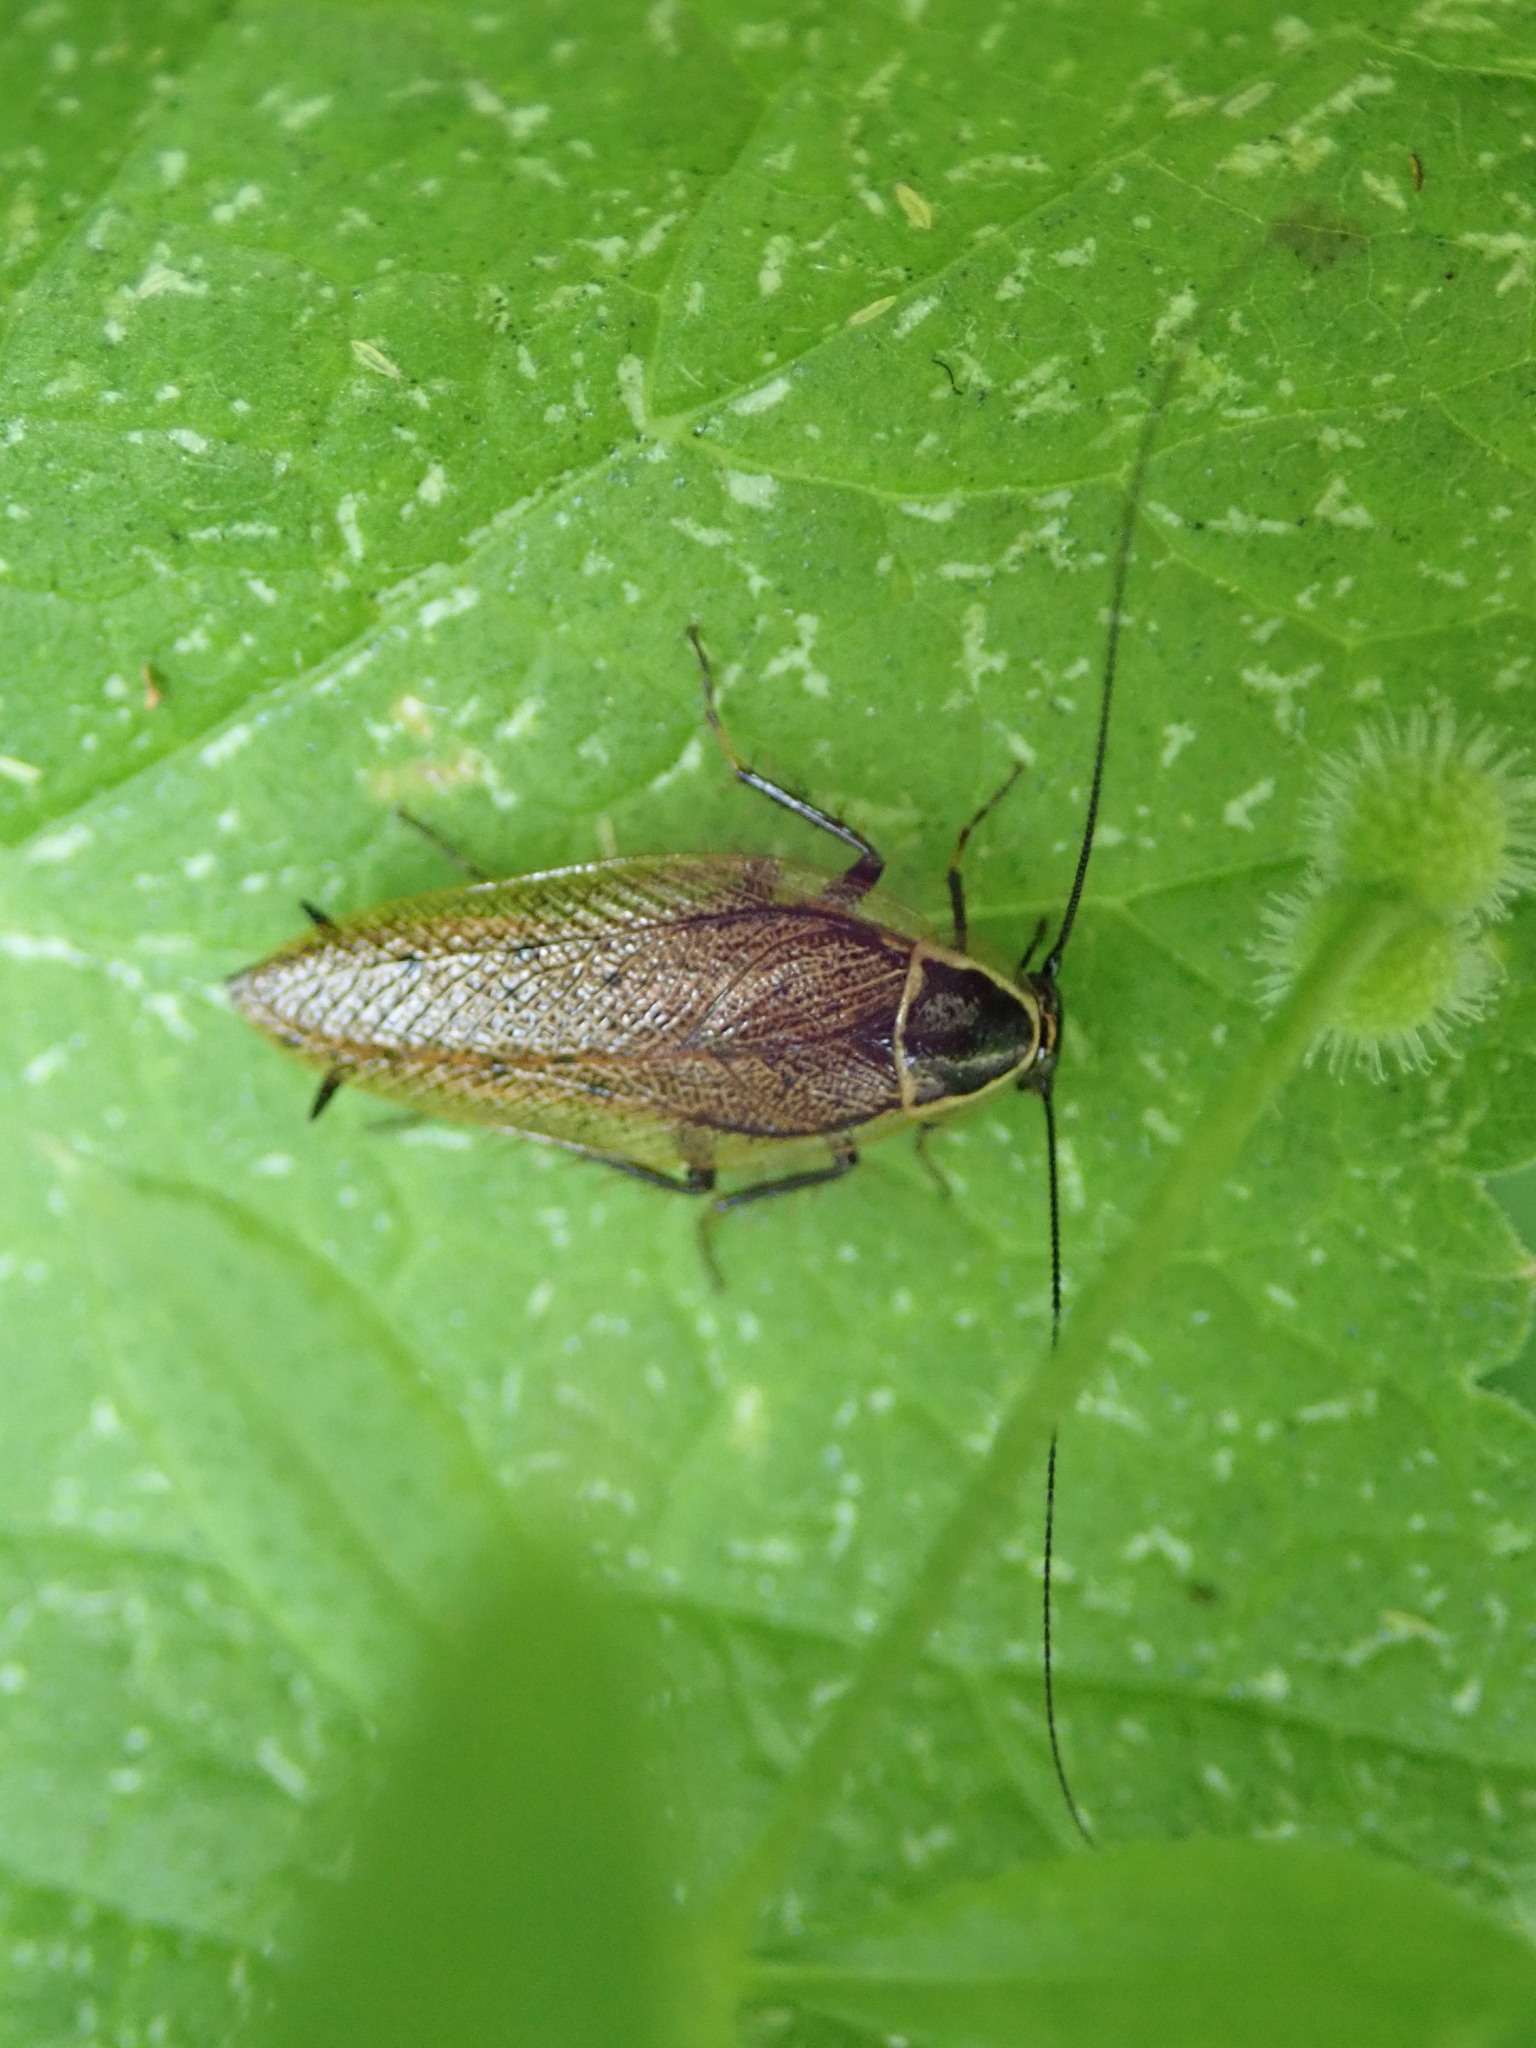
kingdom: Animalia
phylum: Arthropoda
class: Insecta
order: Blattodea
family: Ectobiidae
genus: Ectobius
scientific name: Ectobius sylvestris
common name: Forest cockroach
